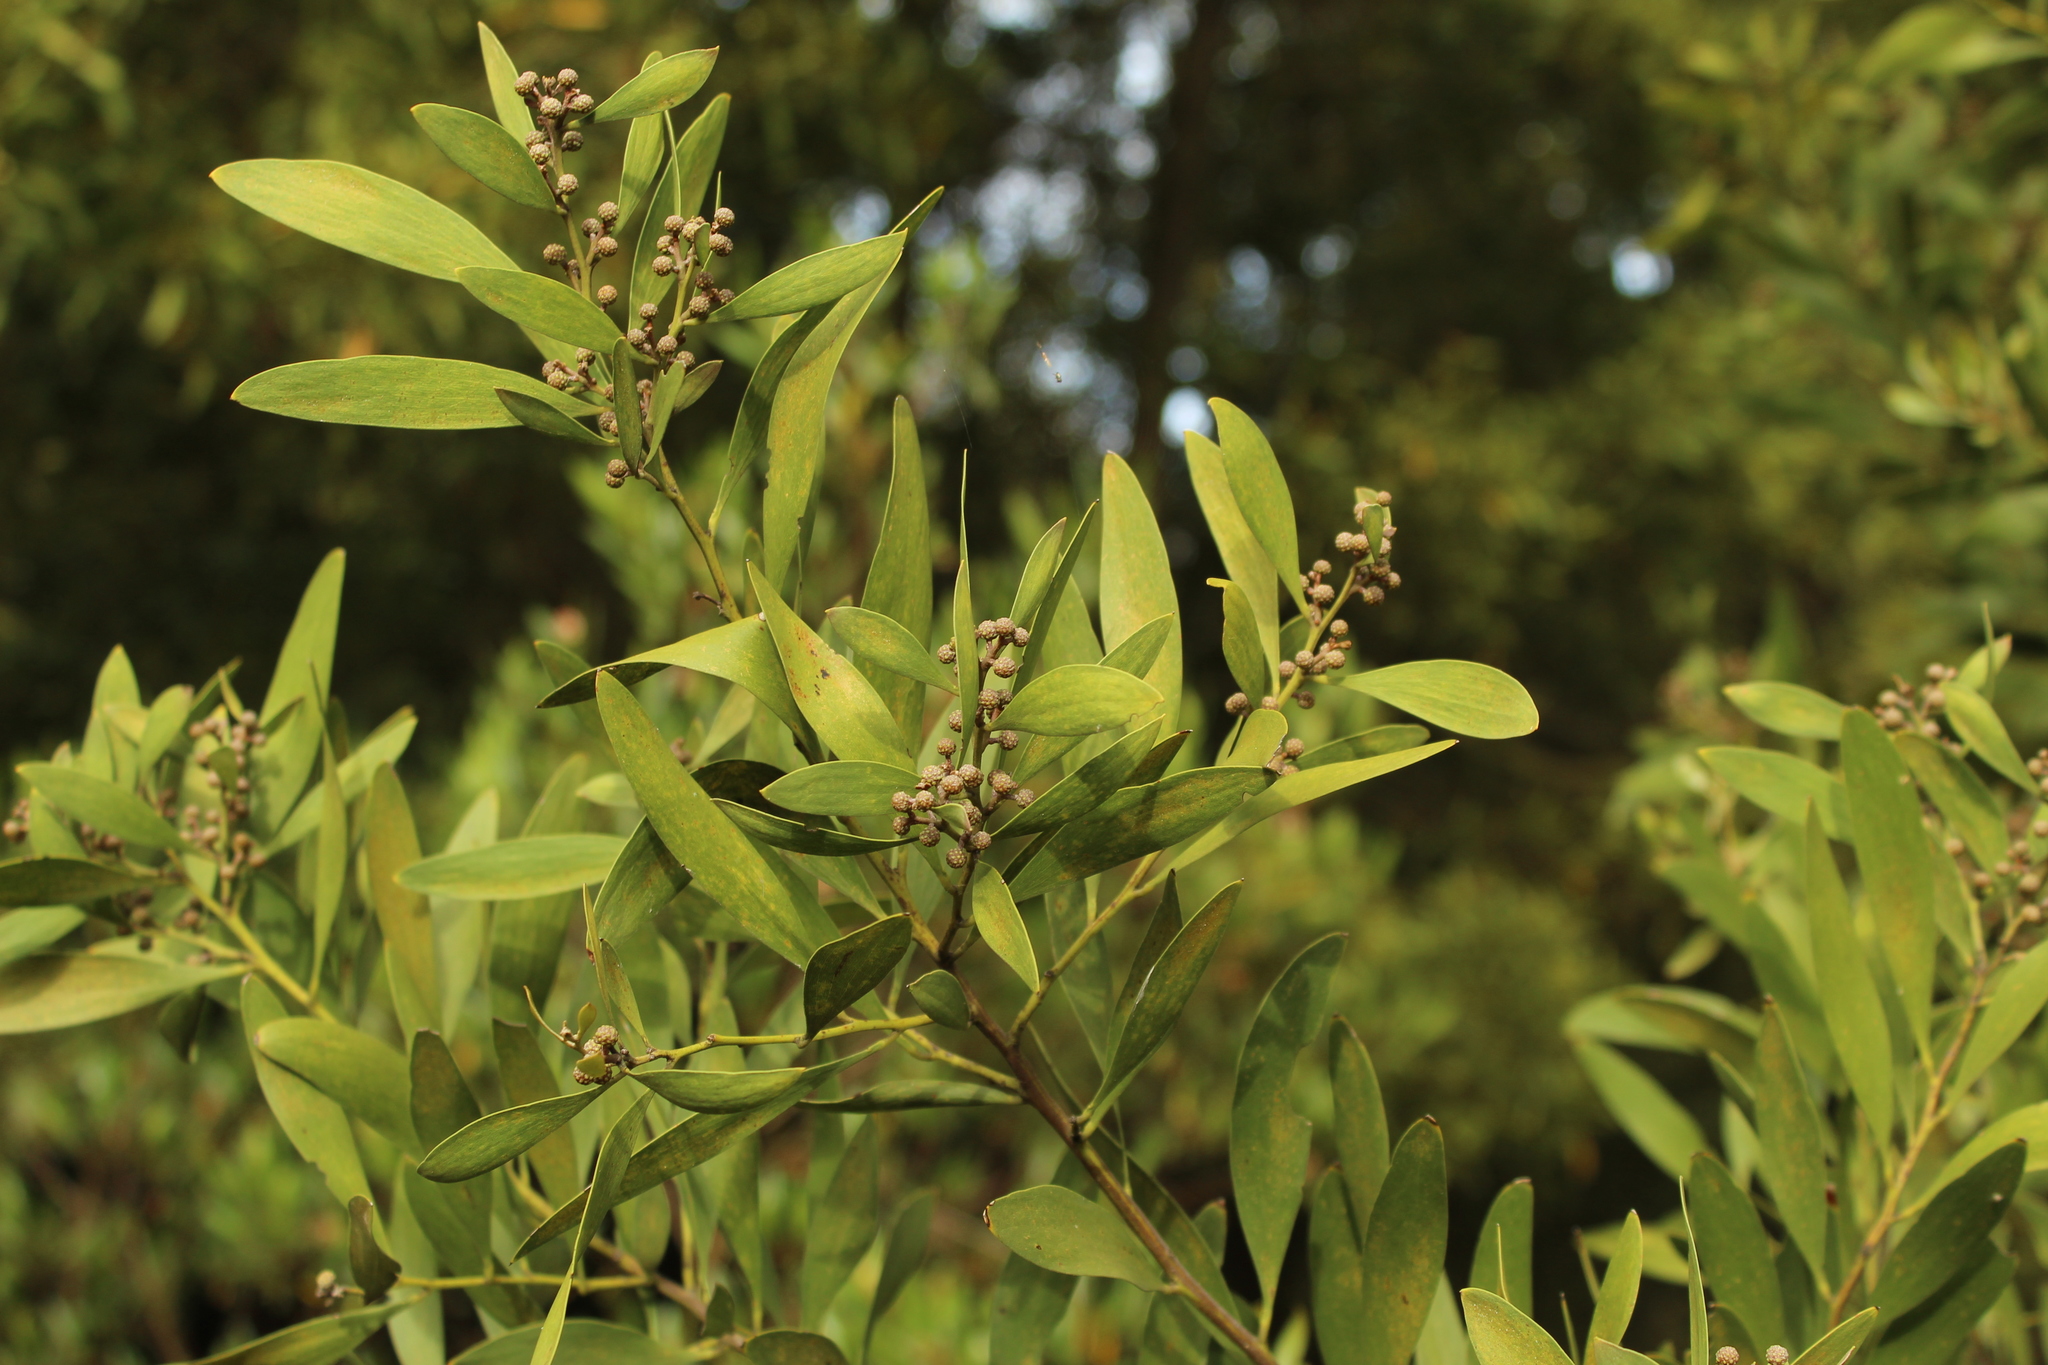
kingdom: Plantae
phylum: Tracheophyta
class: Magnoliopsida
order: Fabales
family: Fabaceae
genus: Acacia
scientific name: Acacia melanoxylon
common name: Blackwood
